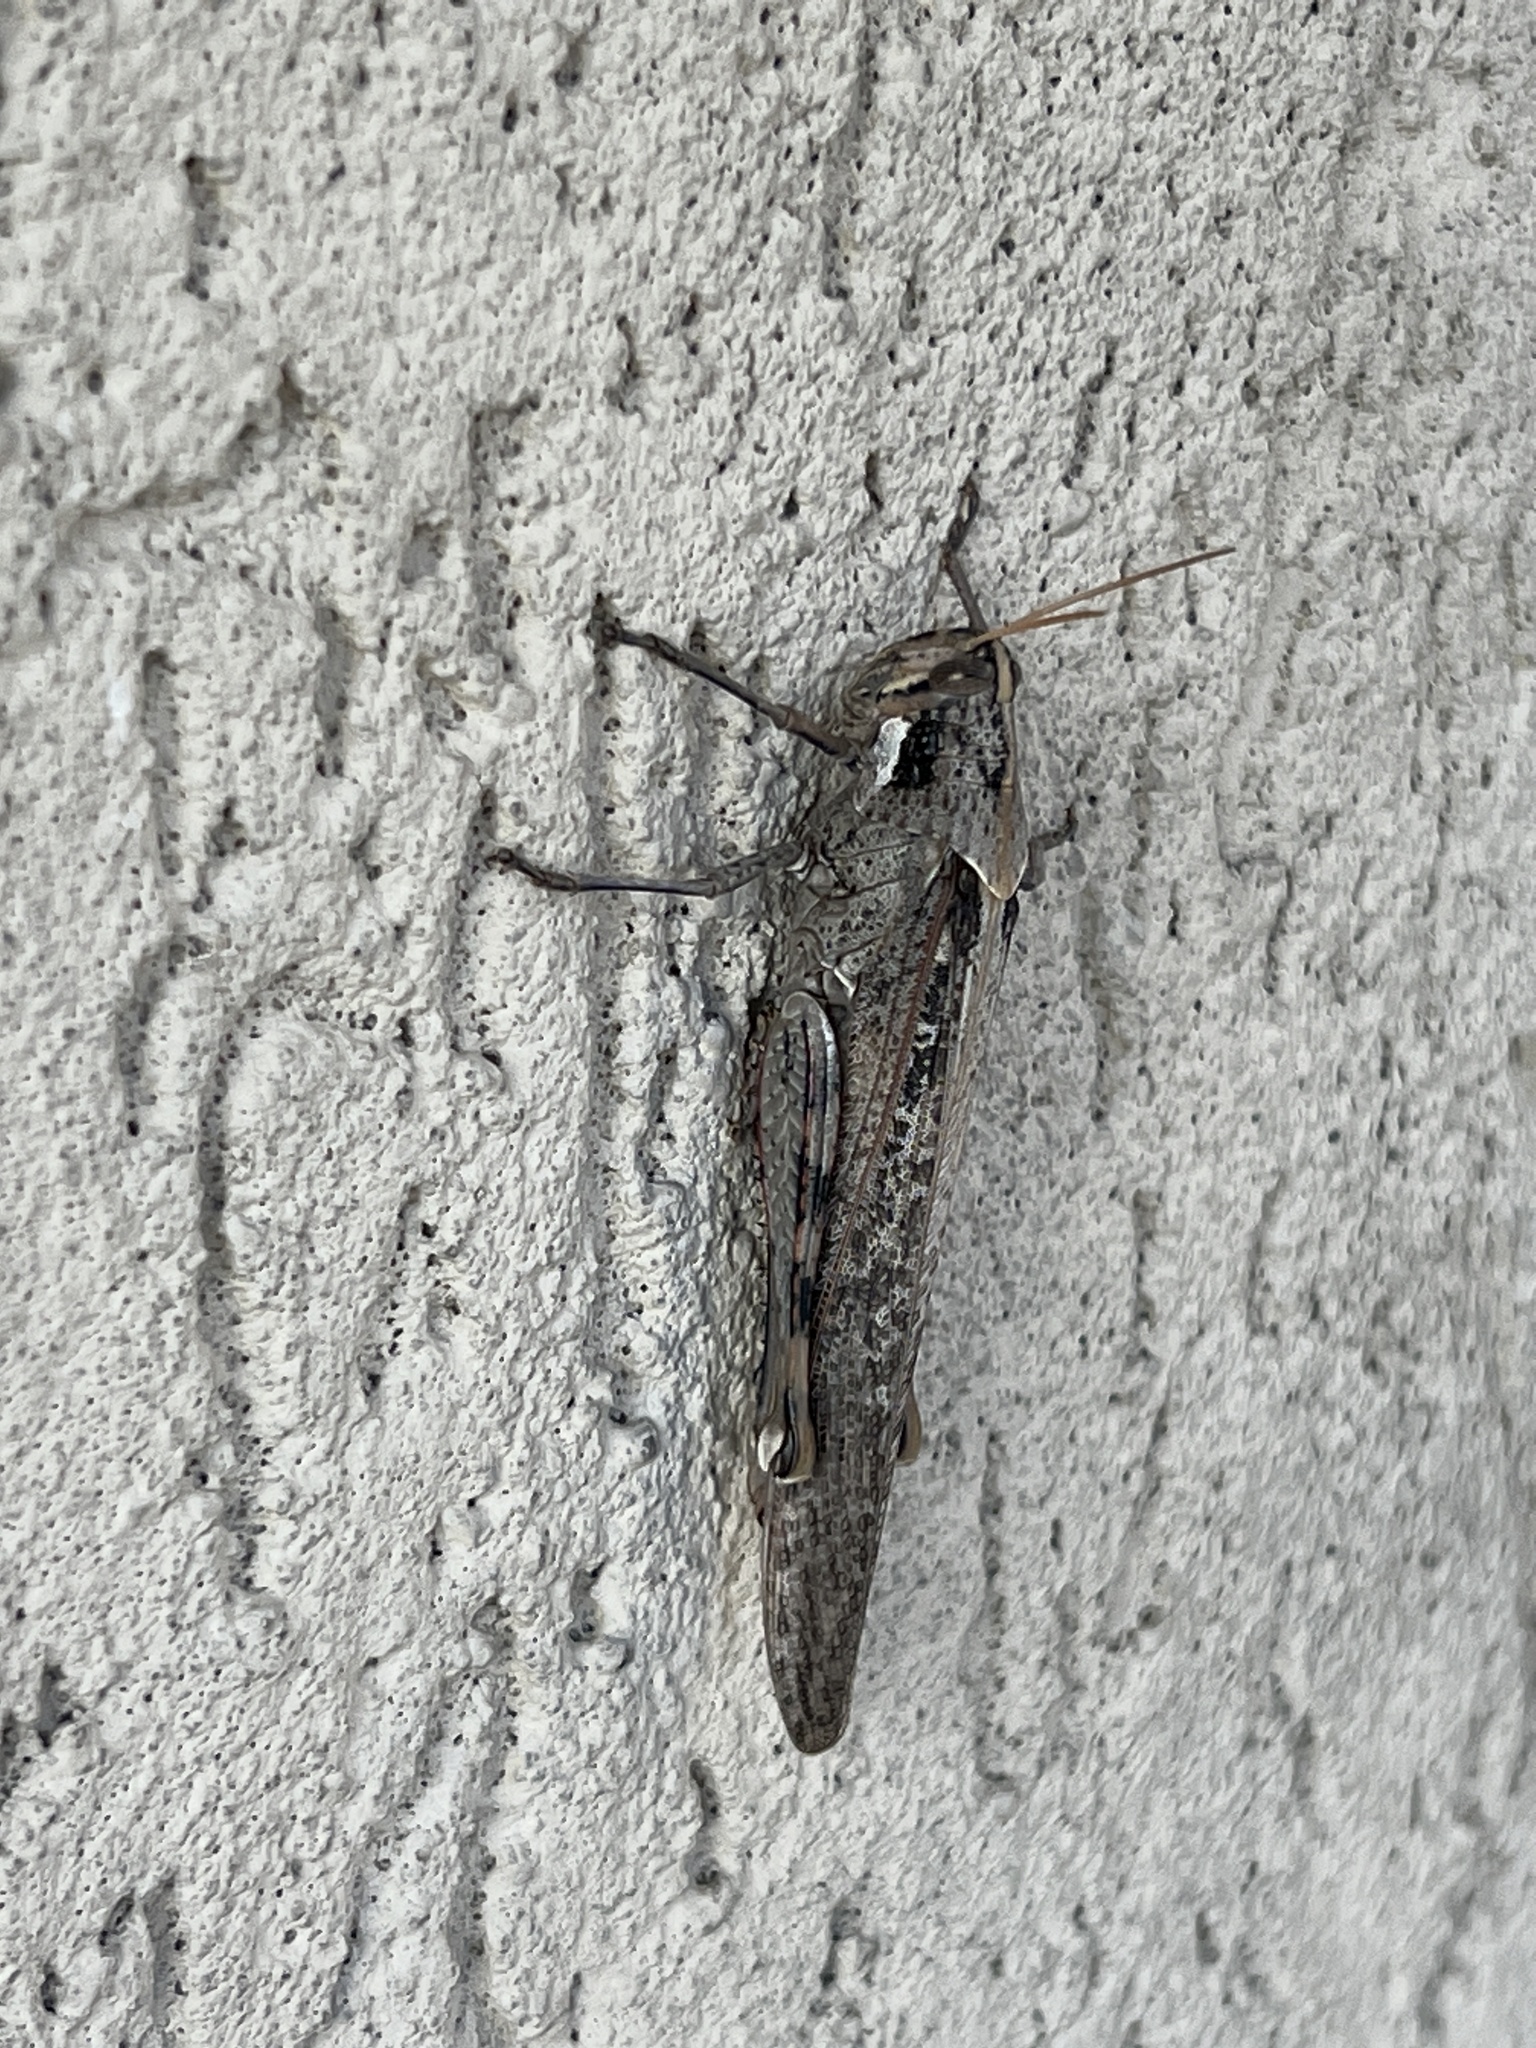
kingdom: Animalia
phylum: Arthropoda
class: Insecta
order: Orthoptera
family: Acrididae
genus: Schistocerca
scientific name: Schistocerca nitens
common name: Vagrant grasshopper
